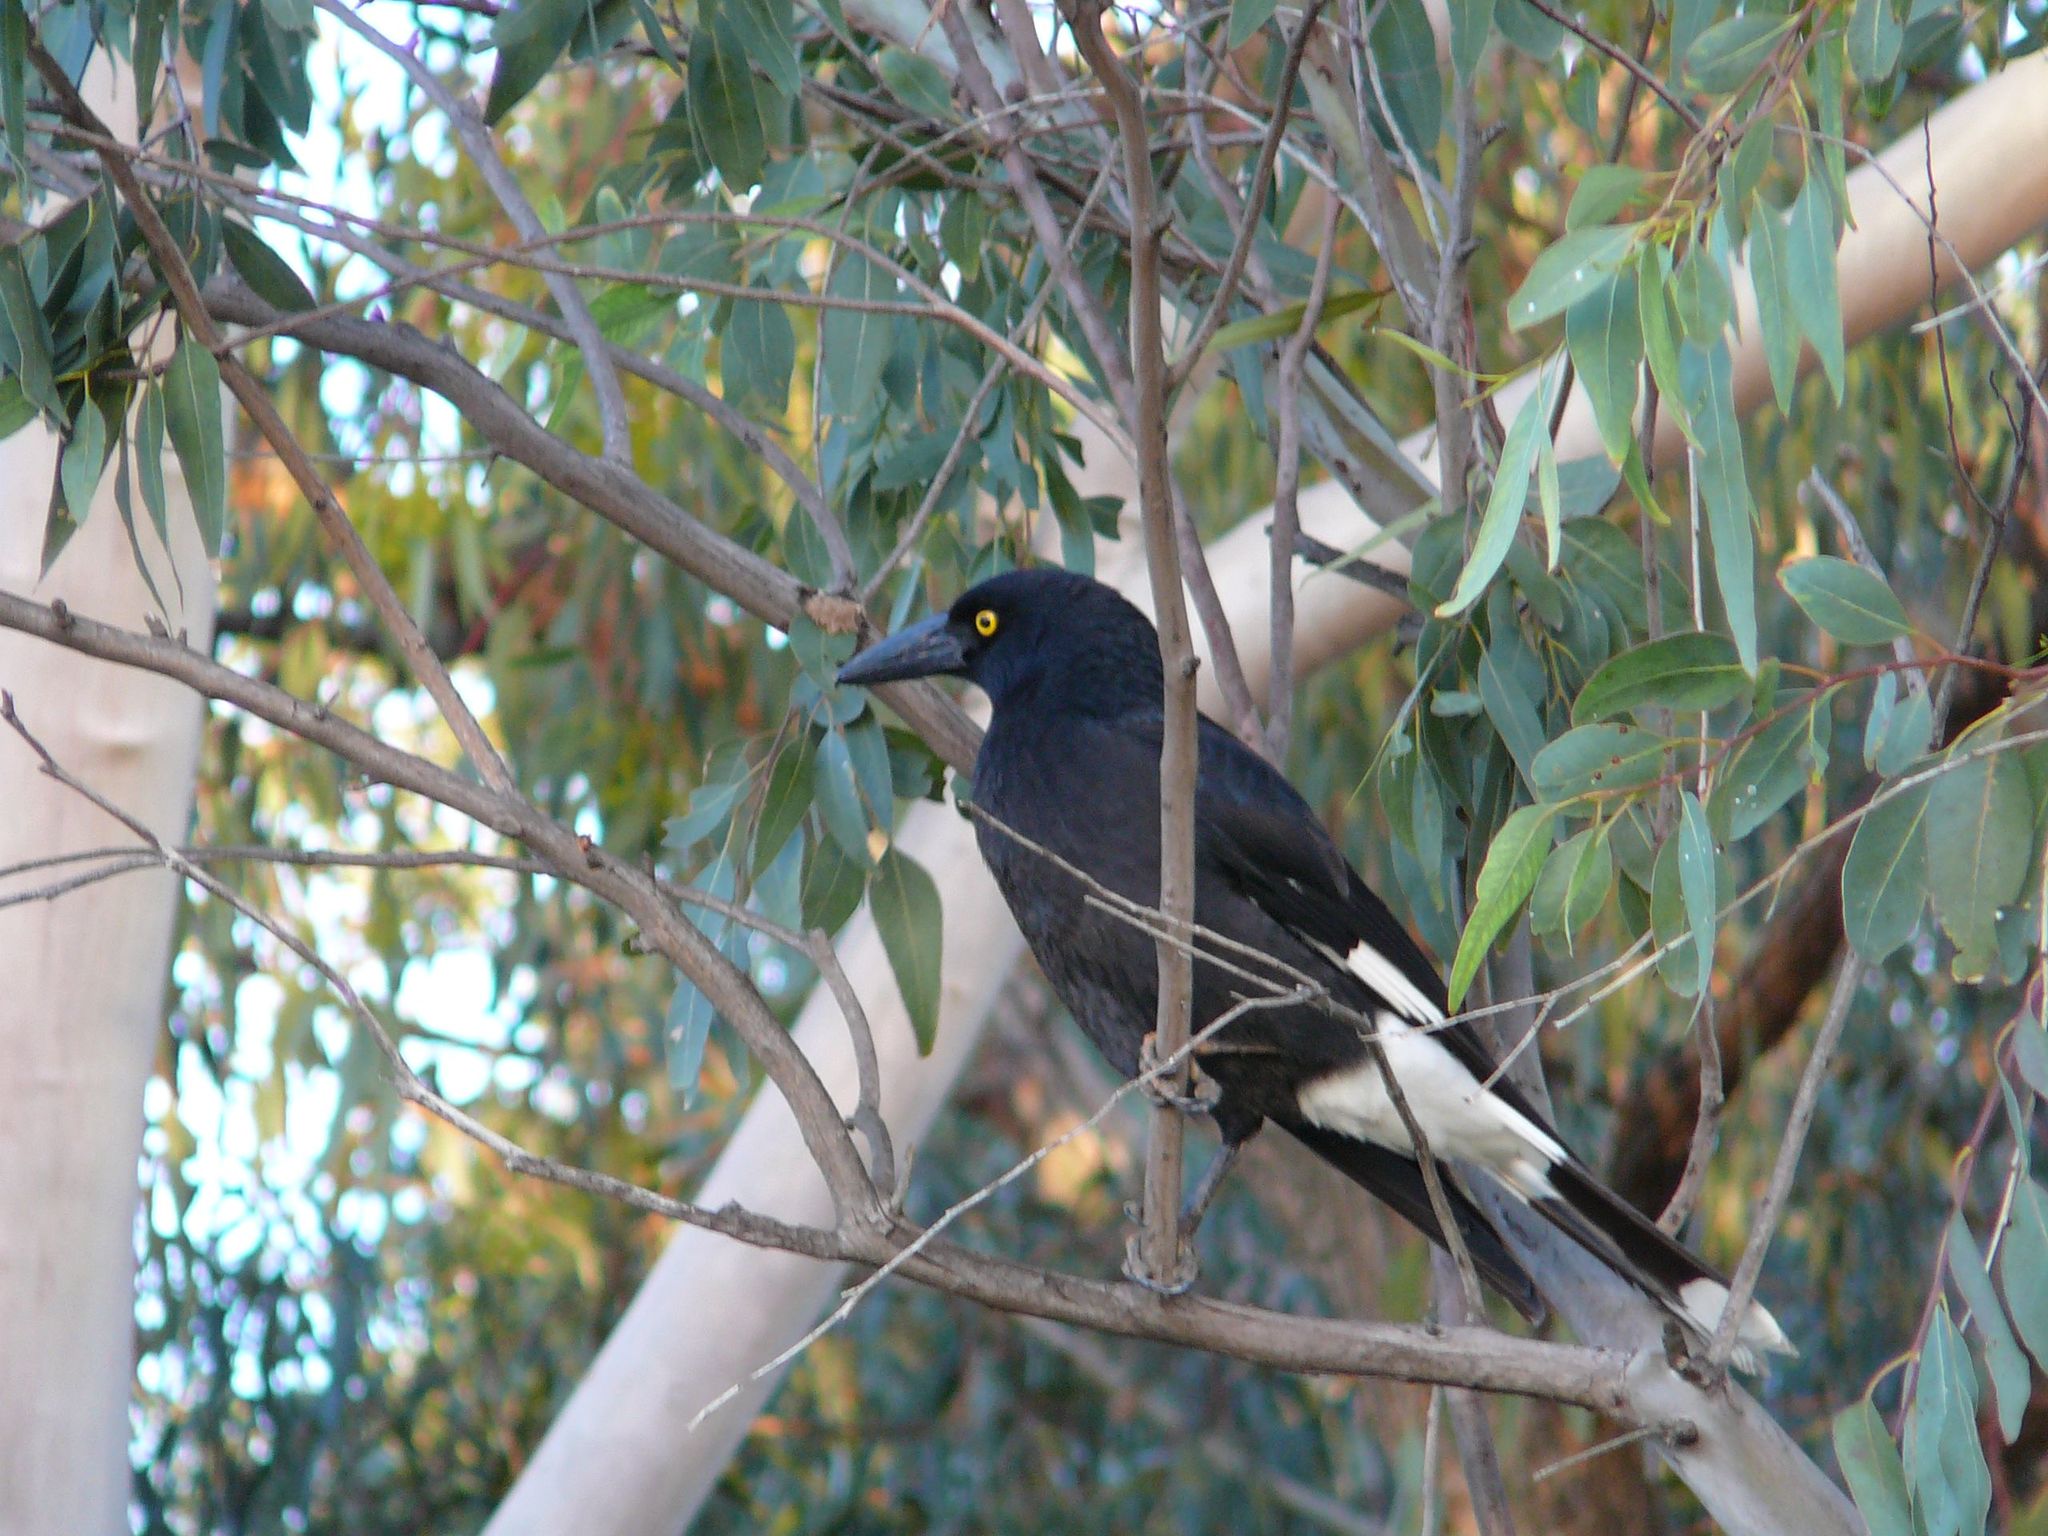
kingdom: Animalia
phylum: Chordata
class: Aves
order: Passeriformes
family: Cracticidae
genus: Strepera
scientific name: Strepera graculina
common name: Pied currawong
